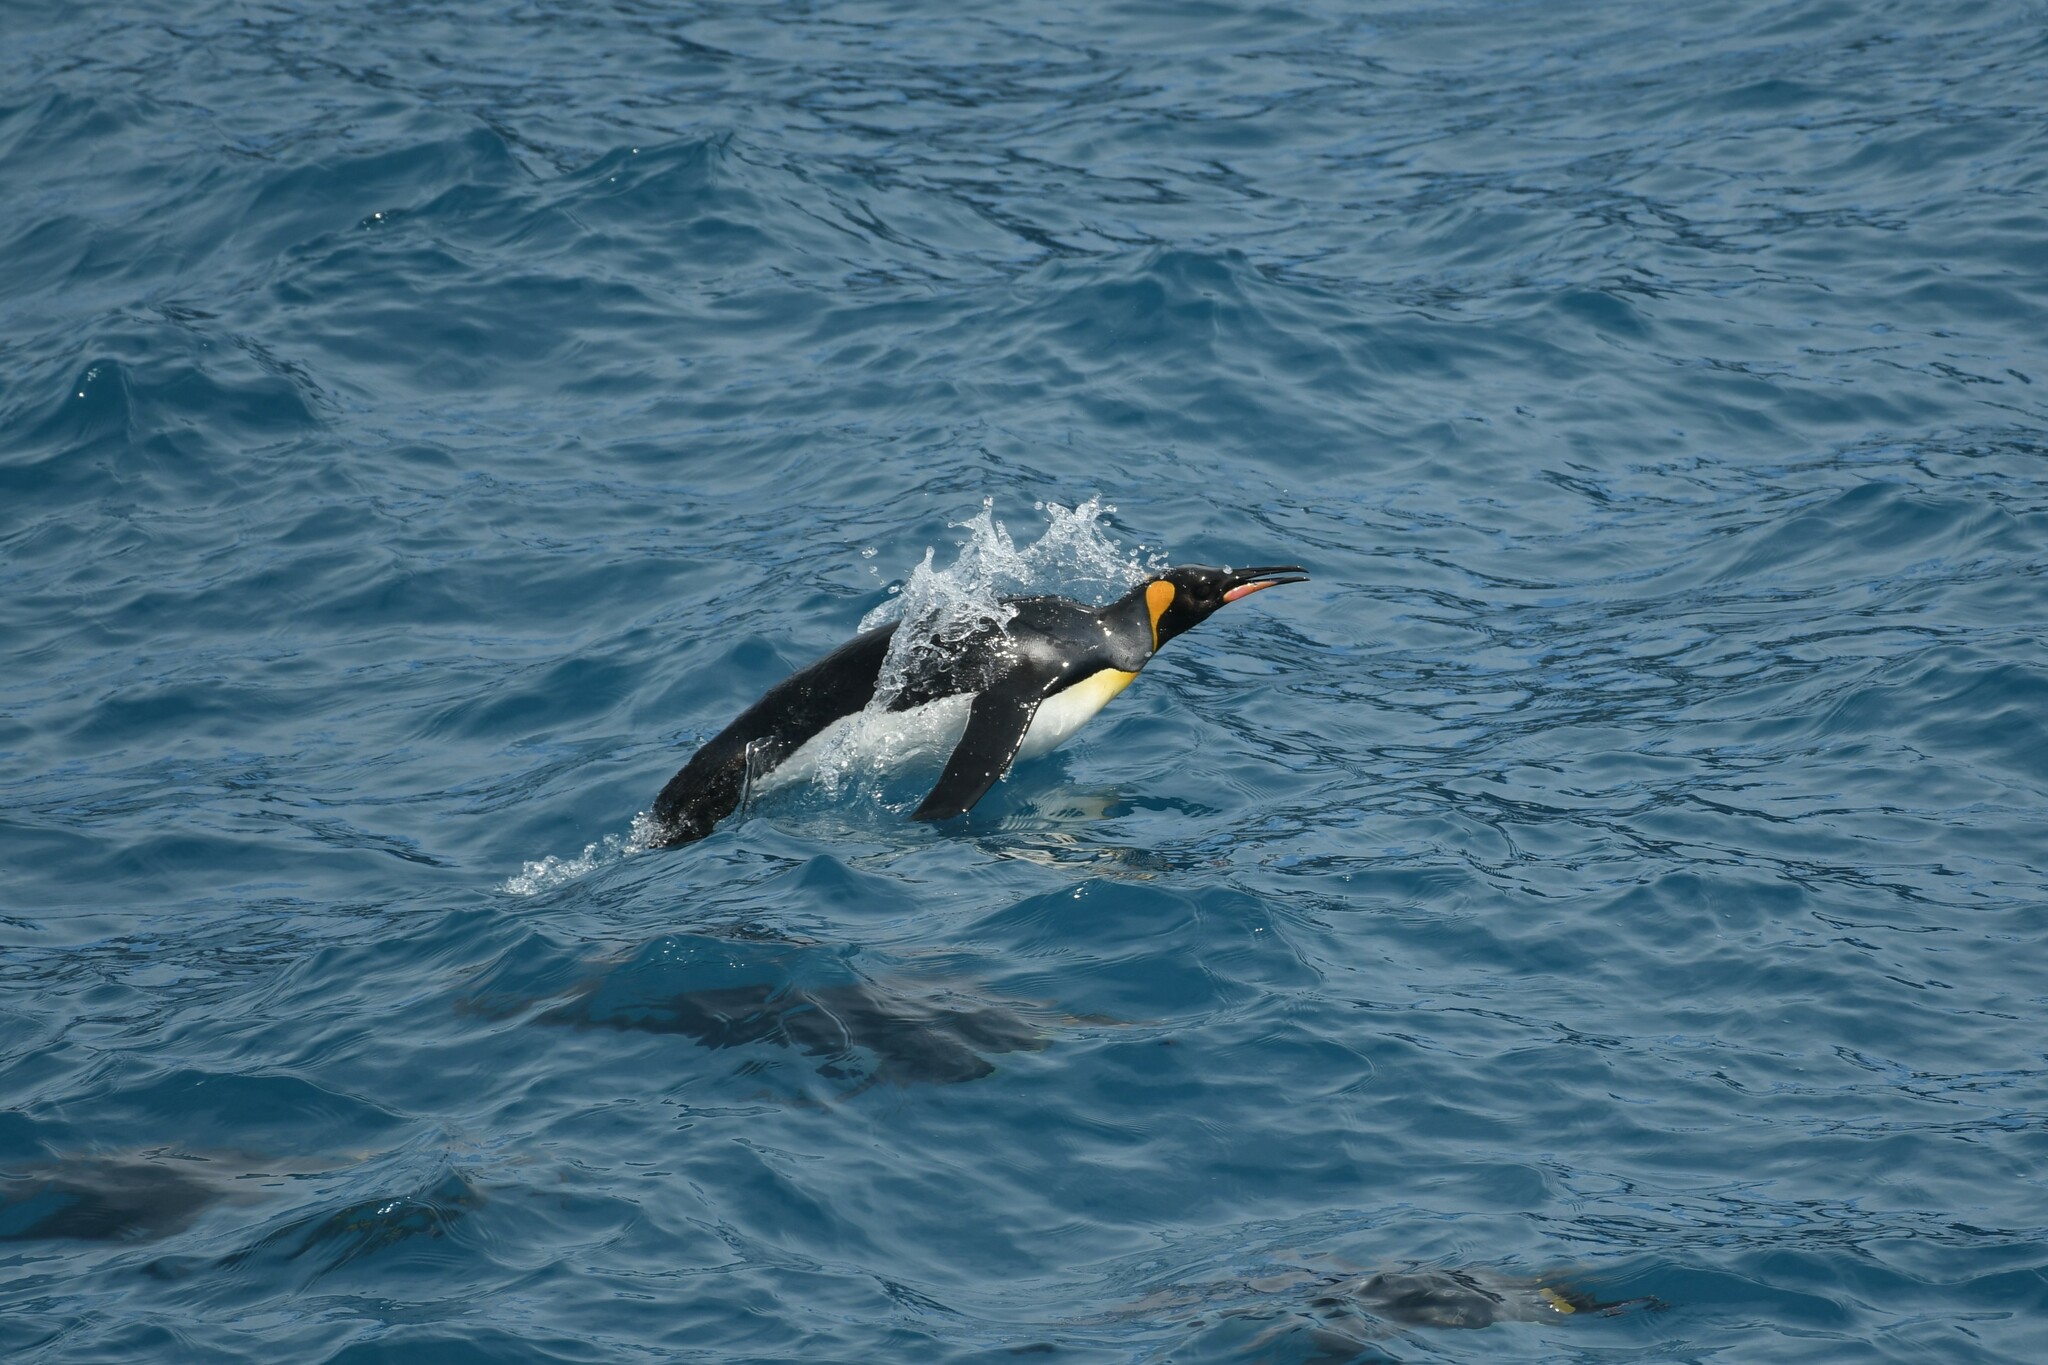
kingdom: Animalia
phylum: Chordata
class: Aves
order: Sphenisciformes
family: Spheniscidae
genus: Aptenodytes
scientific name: Aptenodytes patagonicus
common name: King penguin
